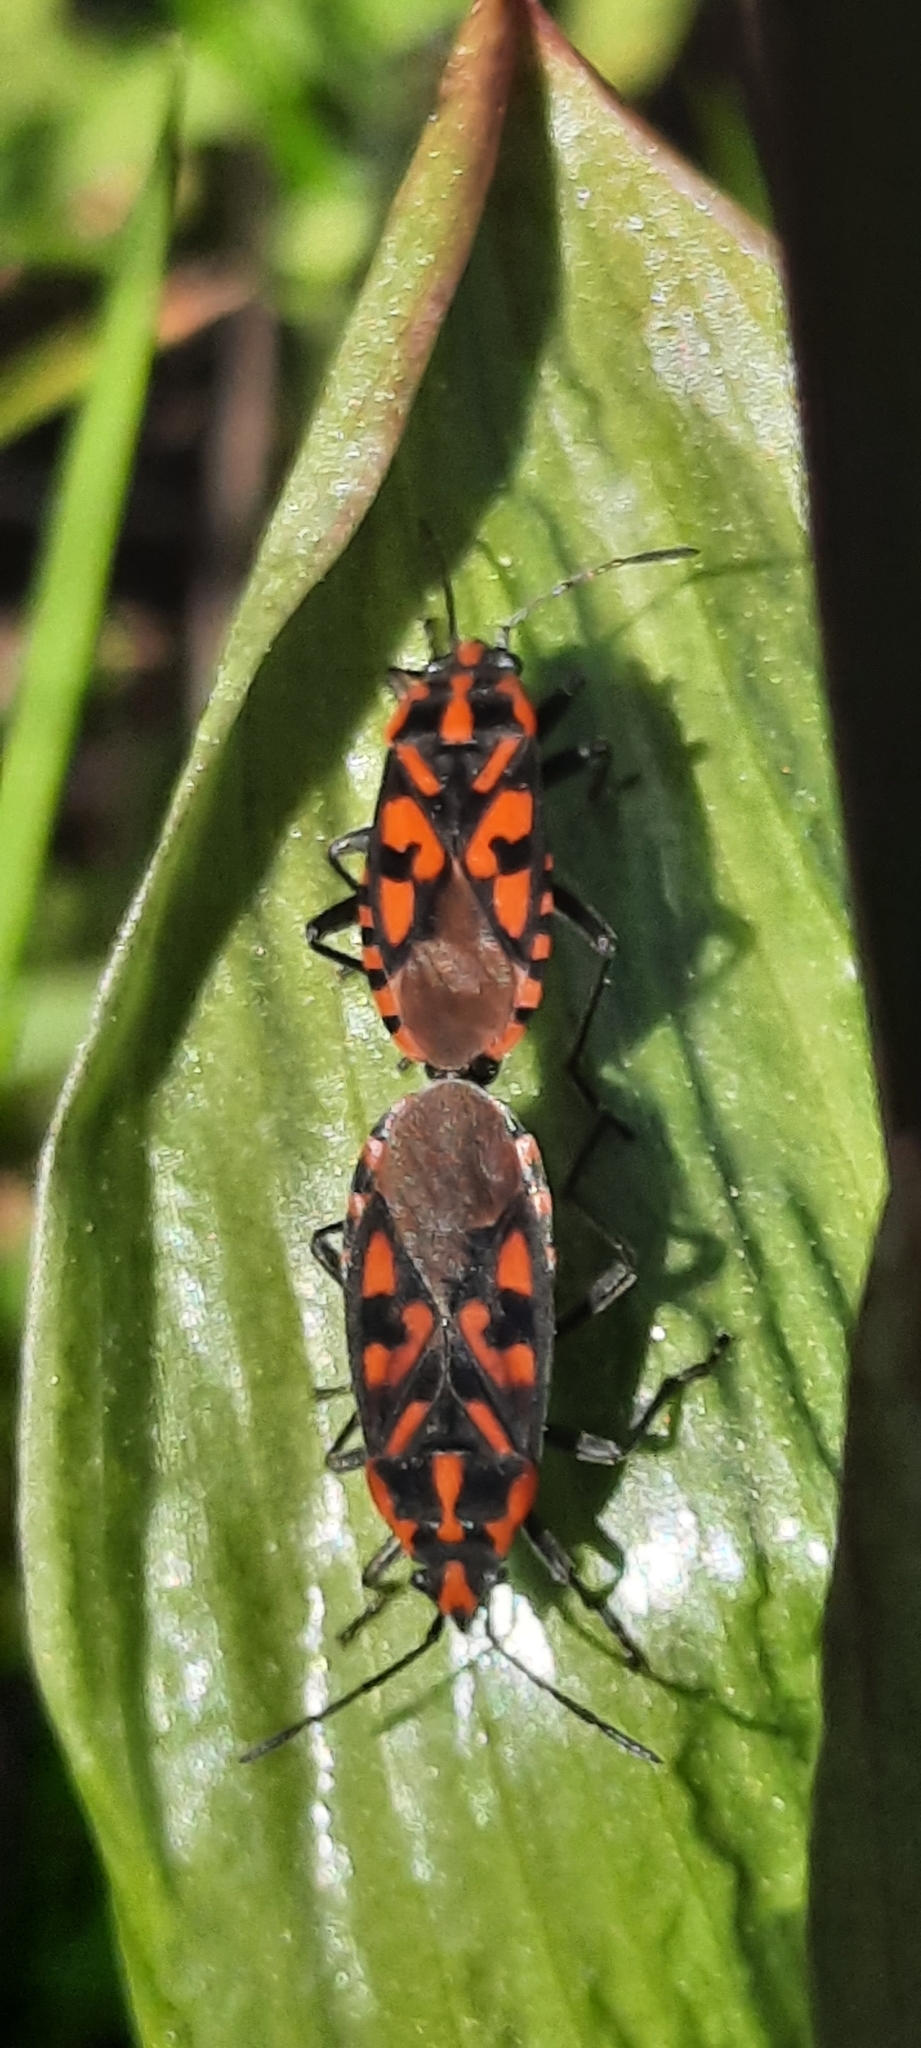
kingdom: Animalia
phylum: Arthropoda
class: Insecta
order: Hemiptera
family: Lygaeidae
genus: Spilostethus
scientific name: Spilostethus saxatilis
